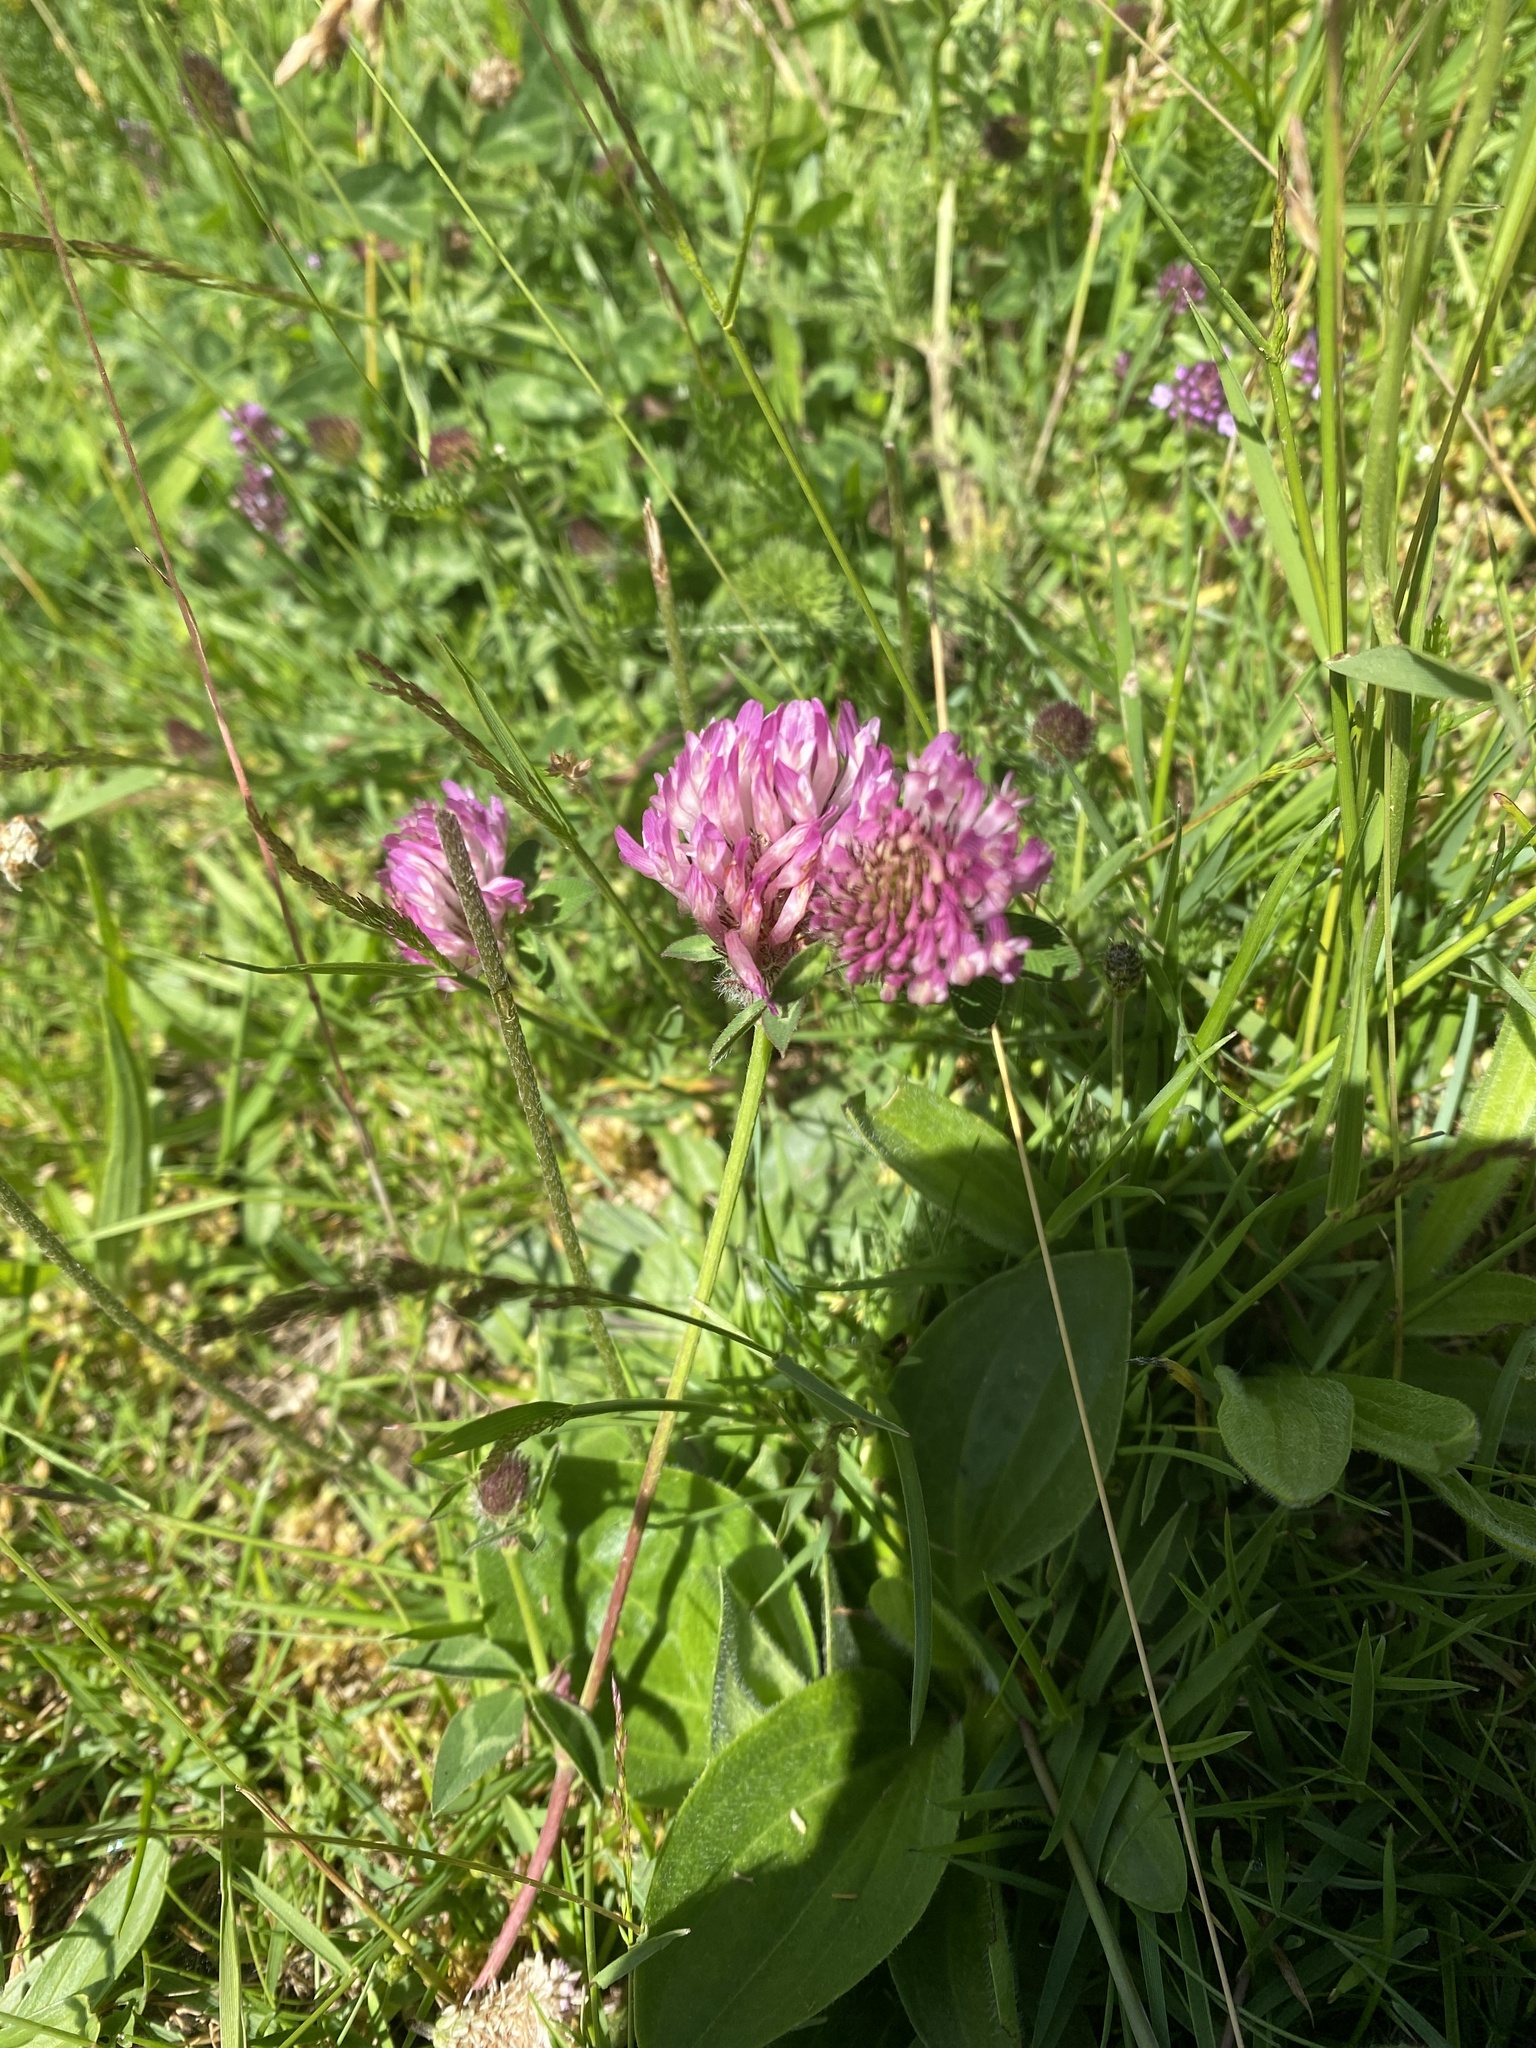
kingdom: Plantae
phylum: Tracheophyta
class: Magnoliopsida
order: Fabales
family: Fabaceae
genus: Trifolium
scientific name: Trifolium pratense
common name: Red clover
